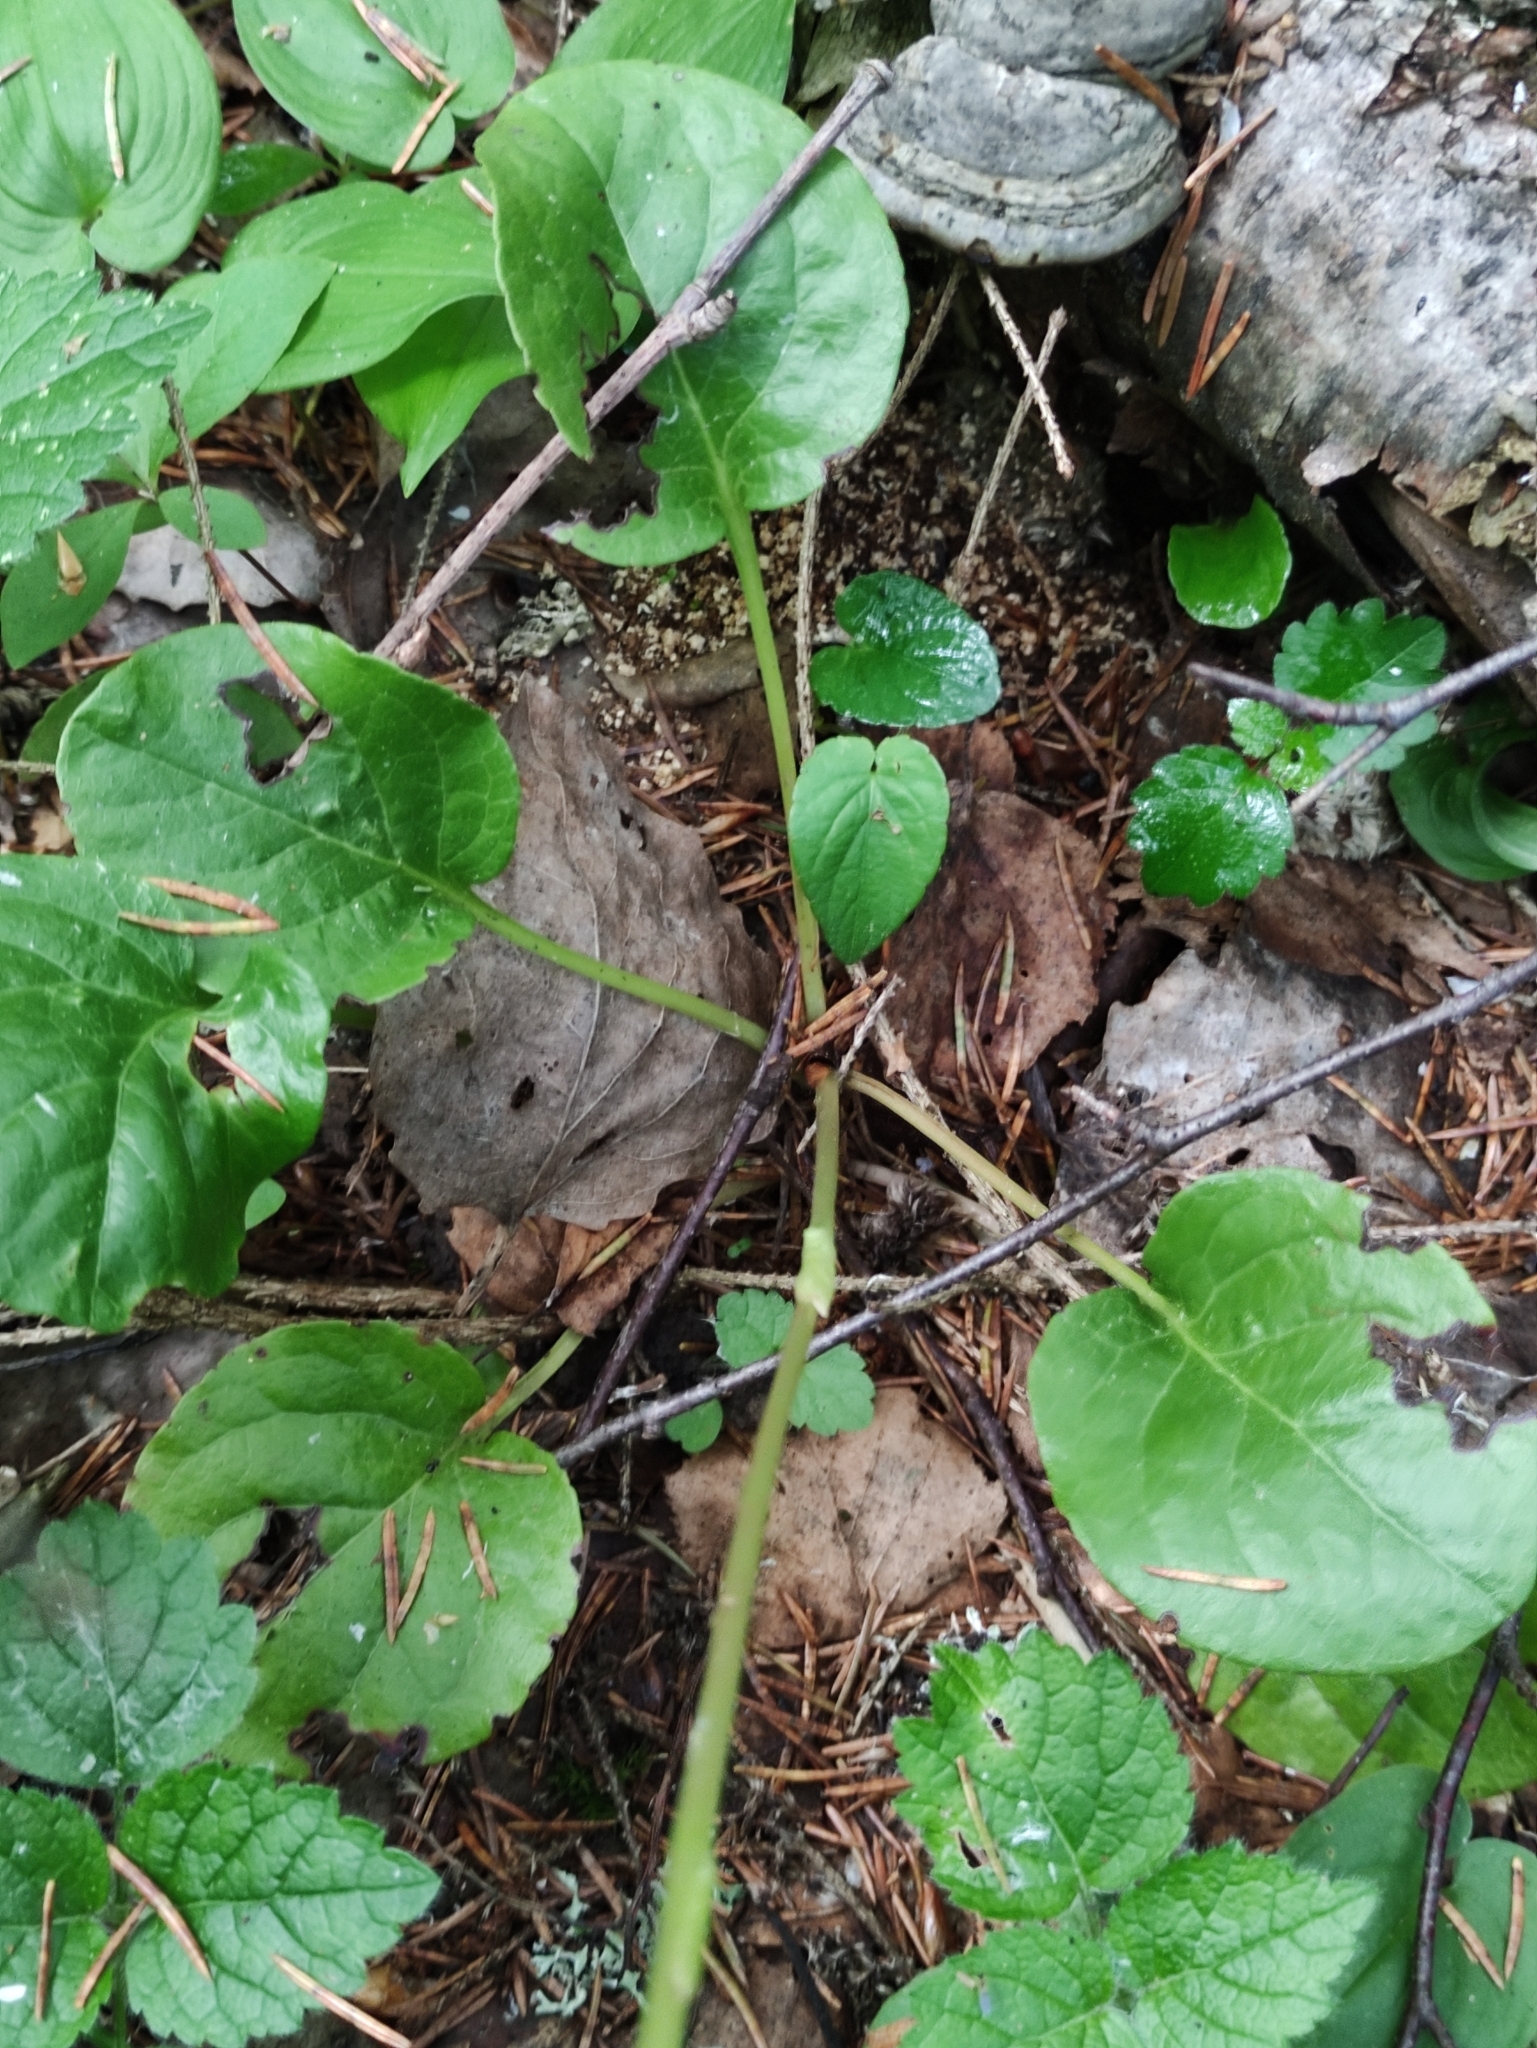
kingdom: Plantae
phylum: Tracheophyta
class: Magnoliopsida
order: Ericales
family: Ericaceae
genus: Pyrola
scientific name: Pyrola rotundifolia
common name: Round-leaved wintergreen
